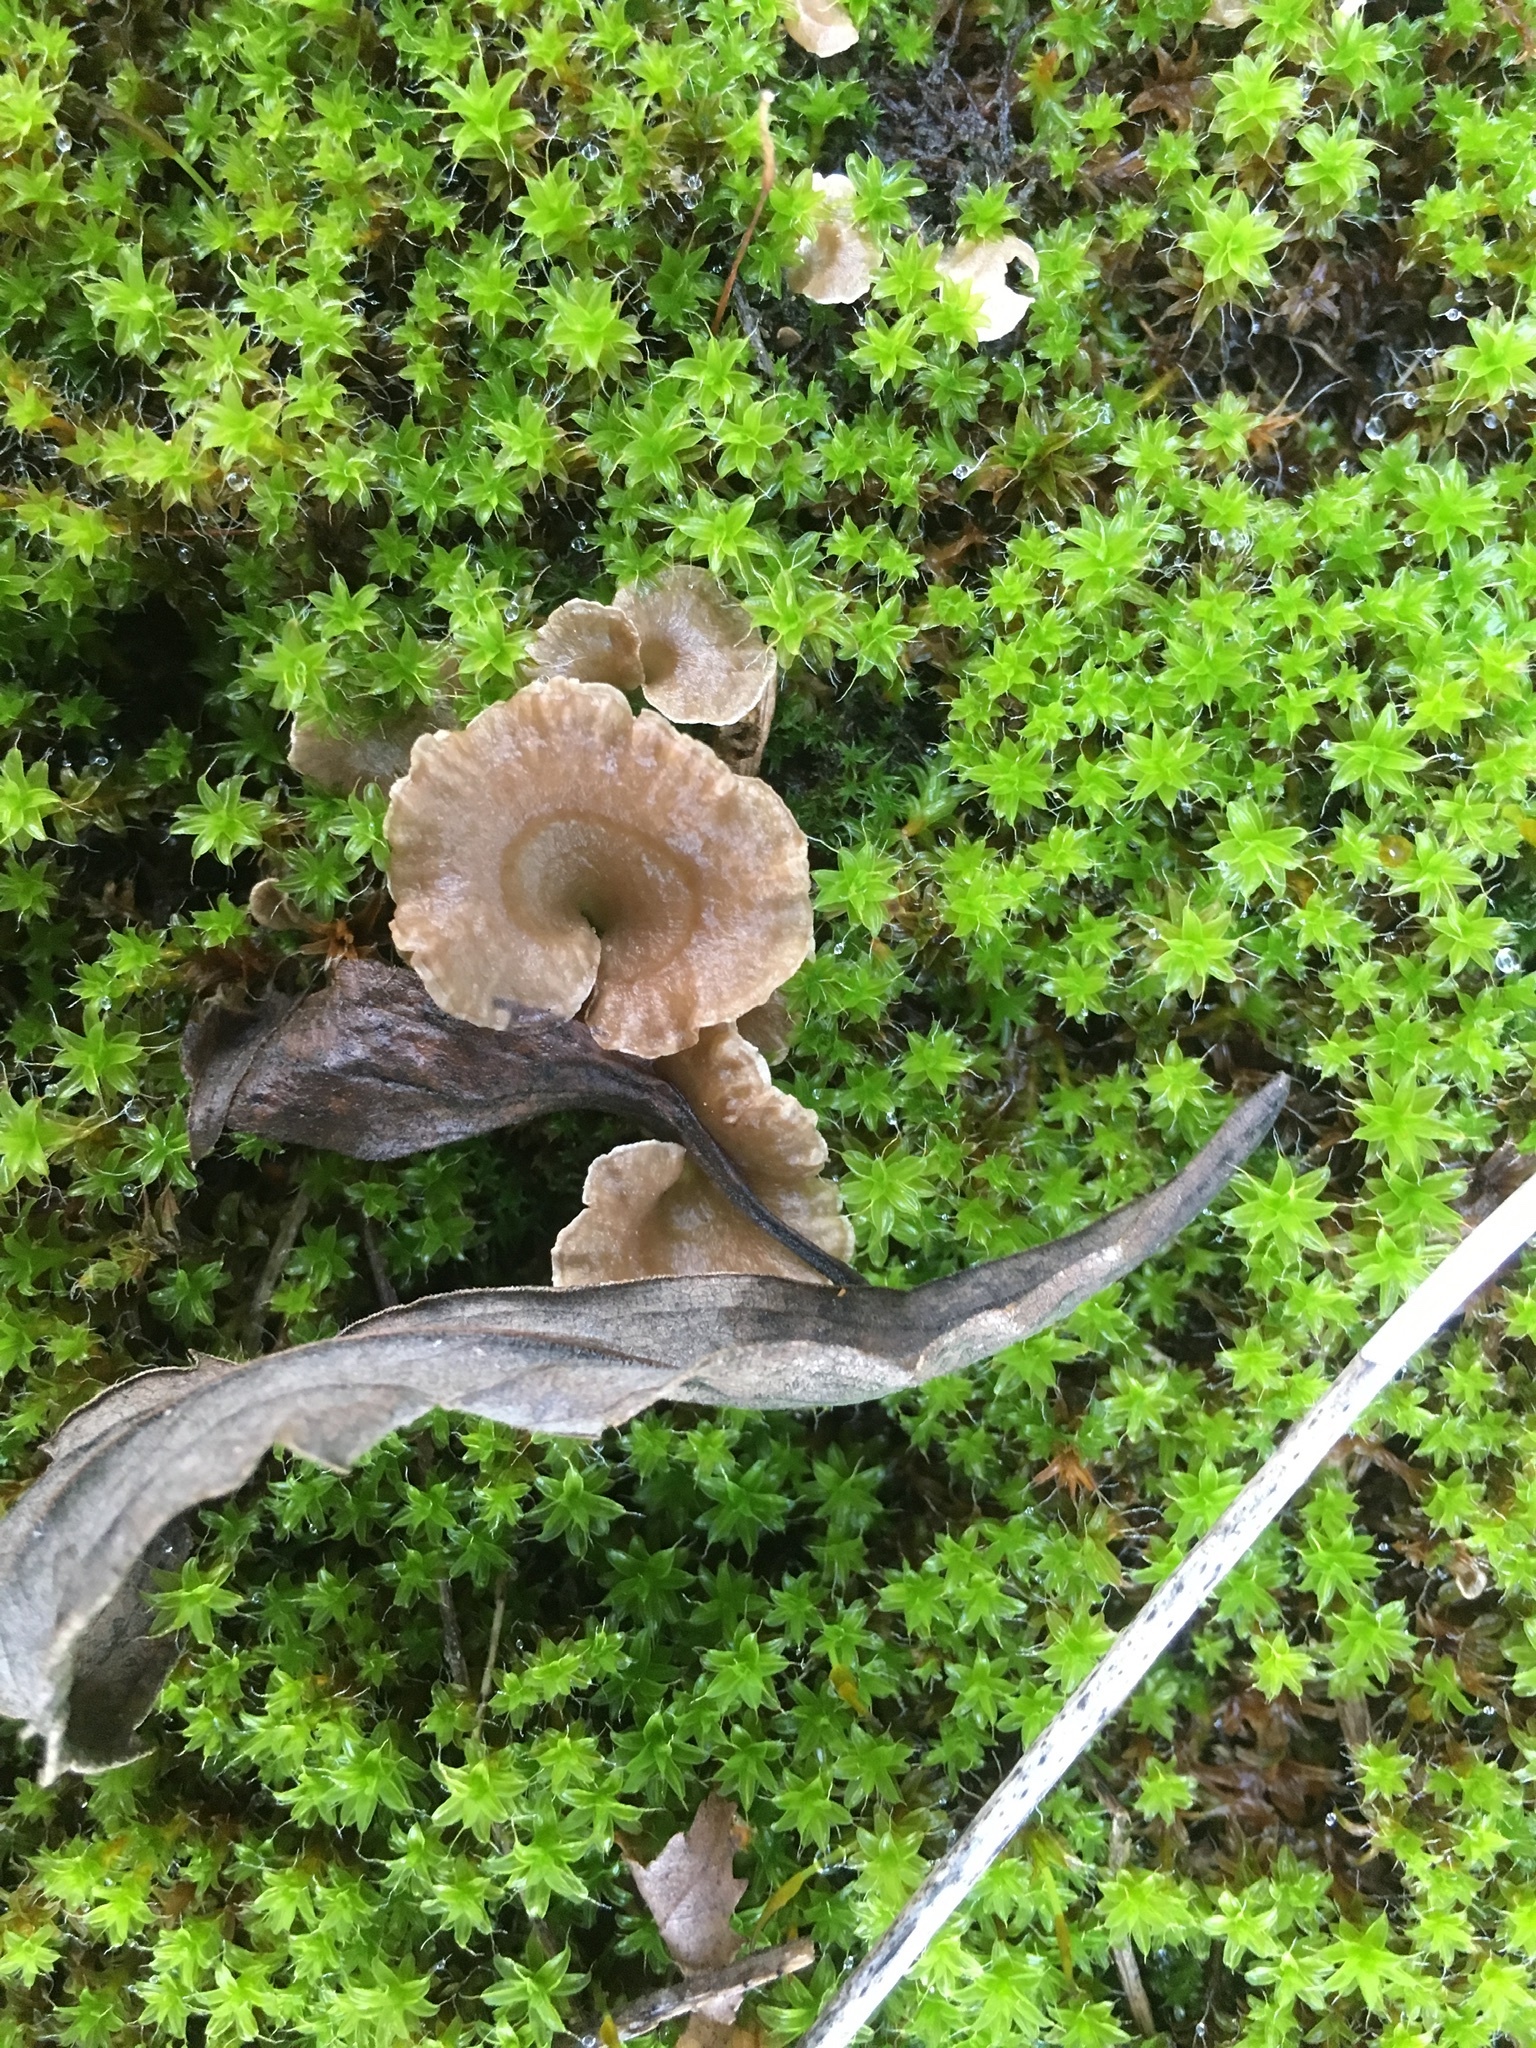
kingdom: Fungi
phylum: Basidiomycota
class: Agaricomycetes
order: Agaricales
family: Hygrophoraceae
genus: Arrhenia
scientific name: Arrhenia spathulata
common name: Spatulate oysterling
